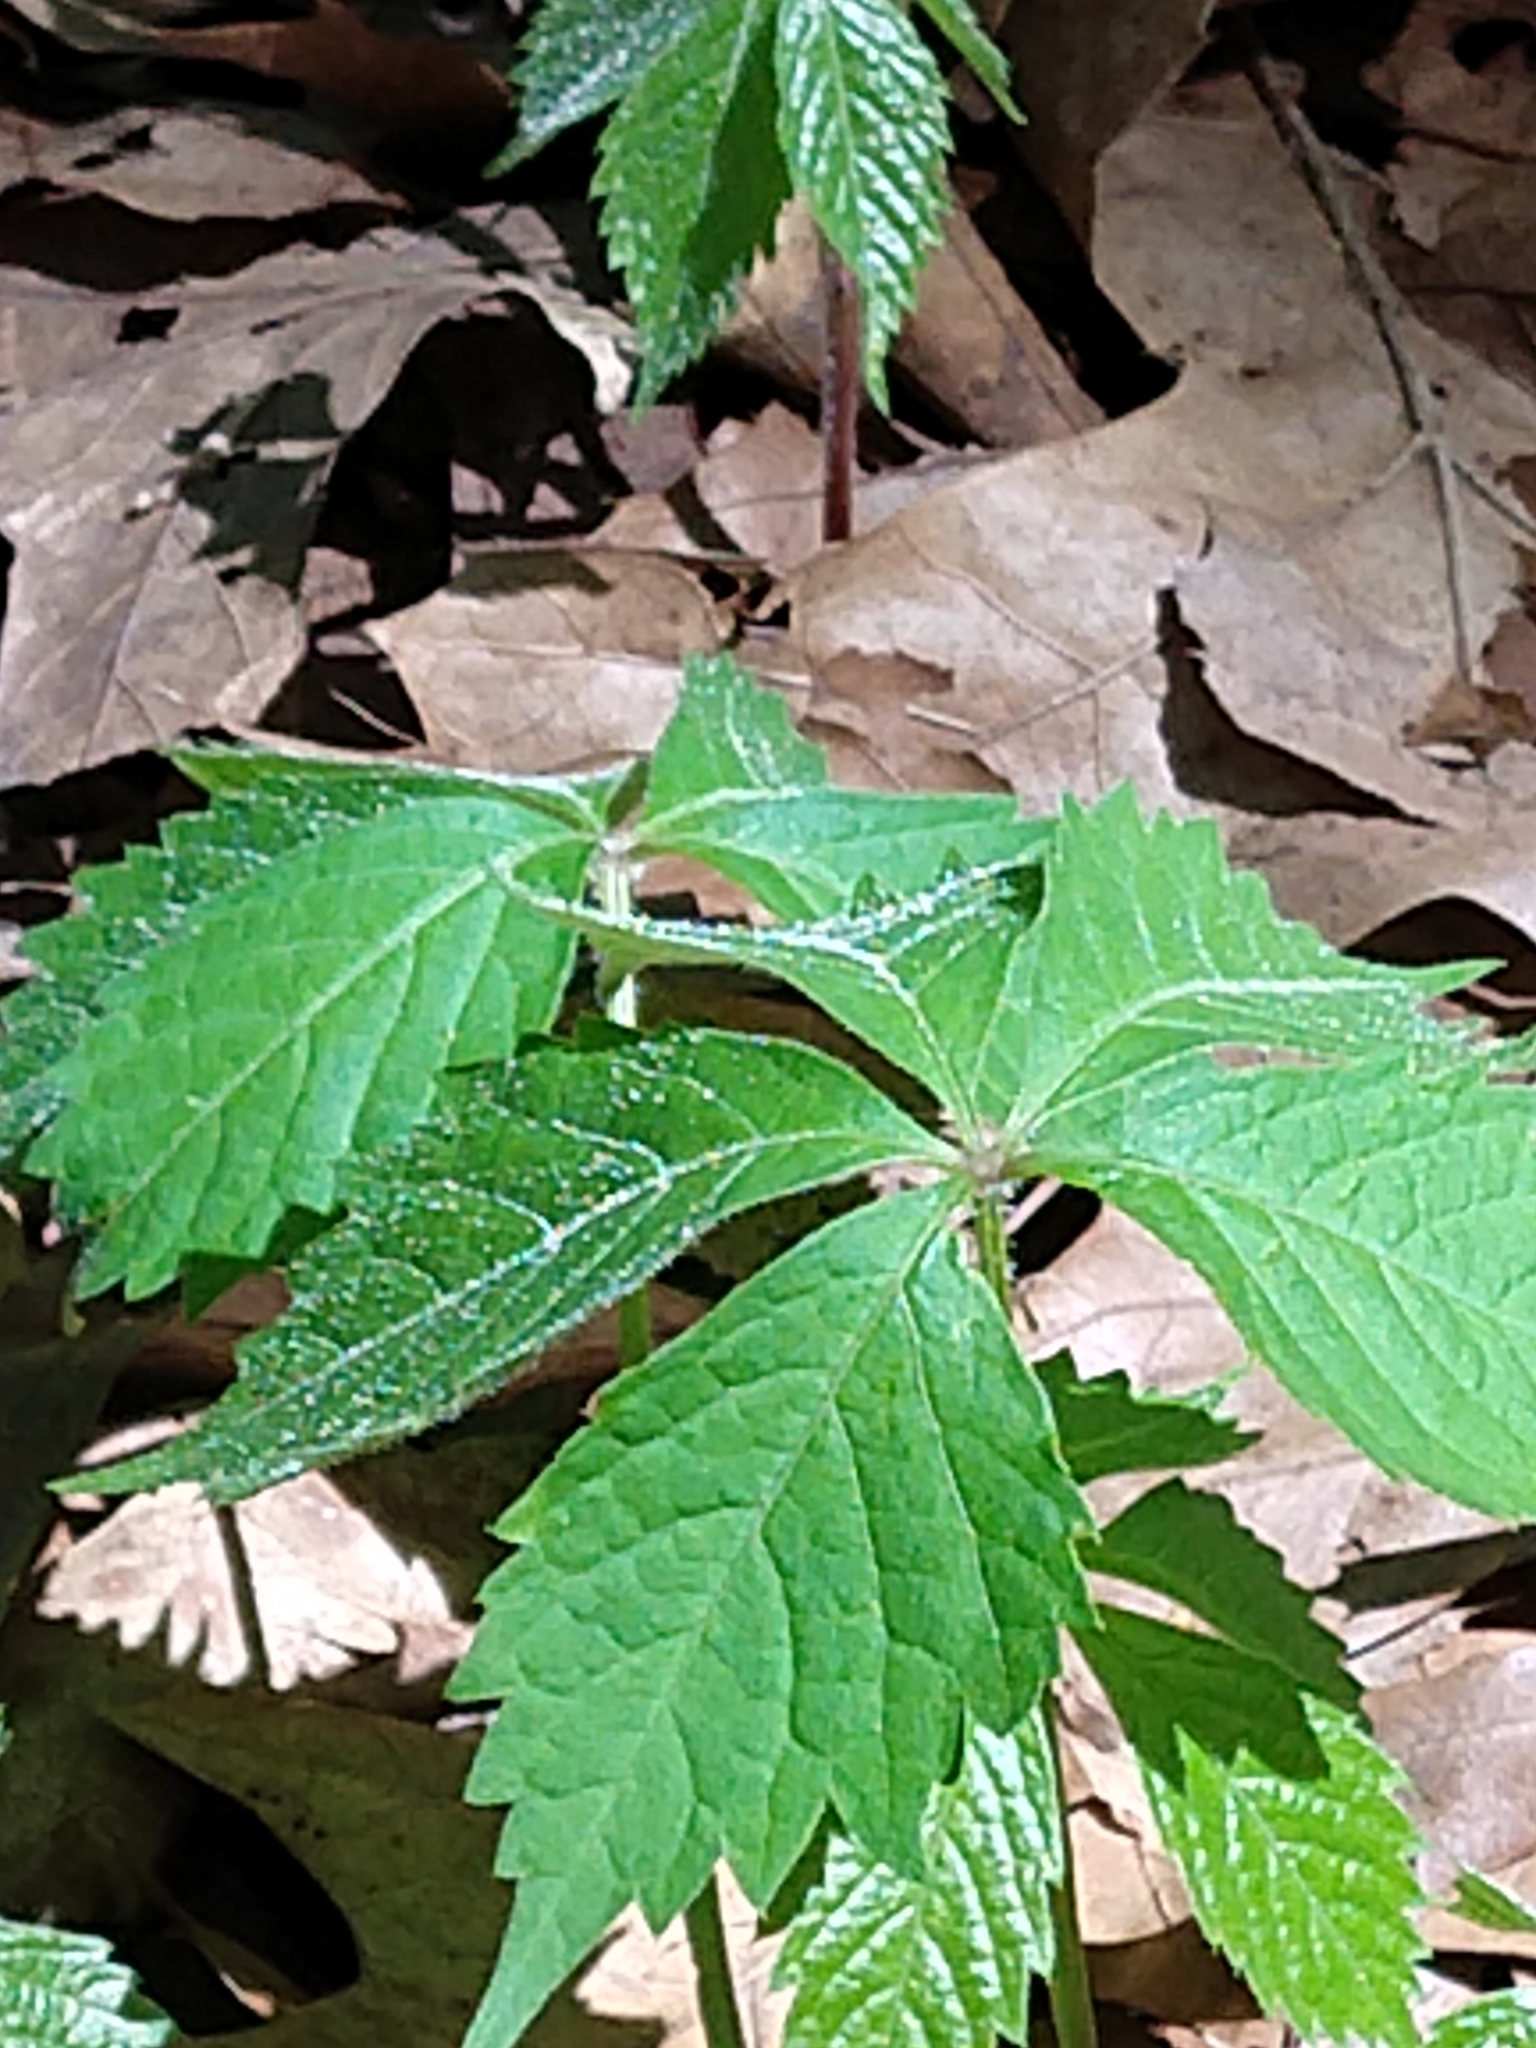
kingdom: Plantae
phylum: Tracheophyta
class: Magnoliopsida
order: Vitales
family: Vitaceae
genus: Parthenocissus
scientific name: Parthenocissus quinquefolia
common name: Virginia-creeper
